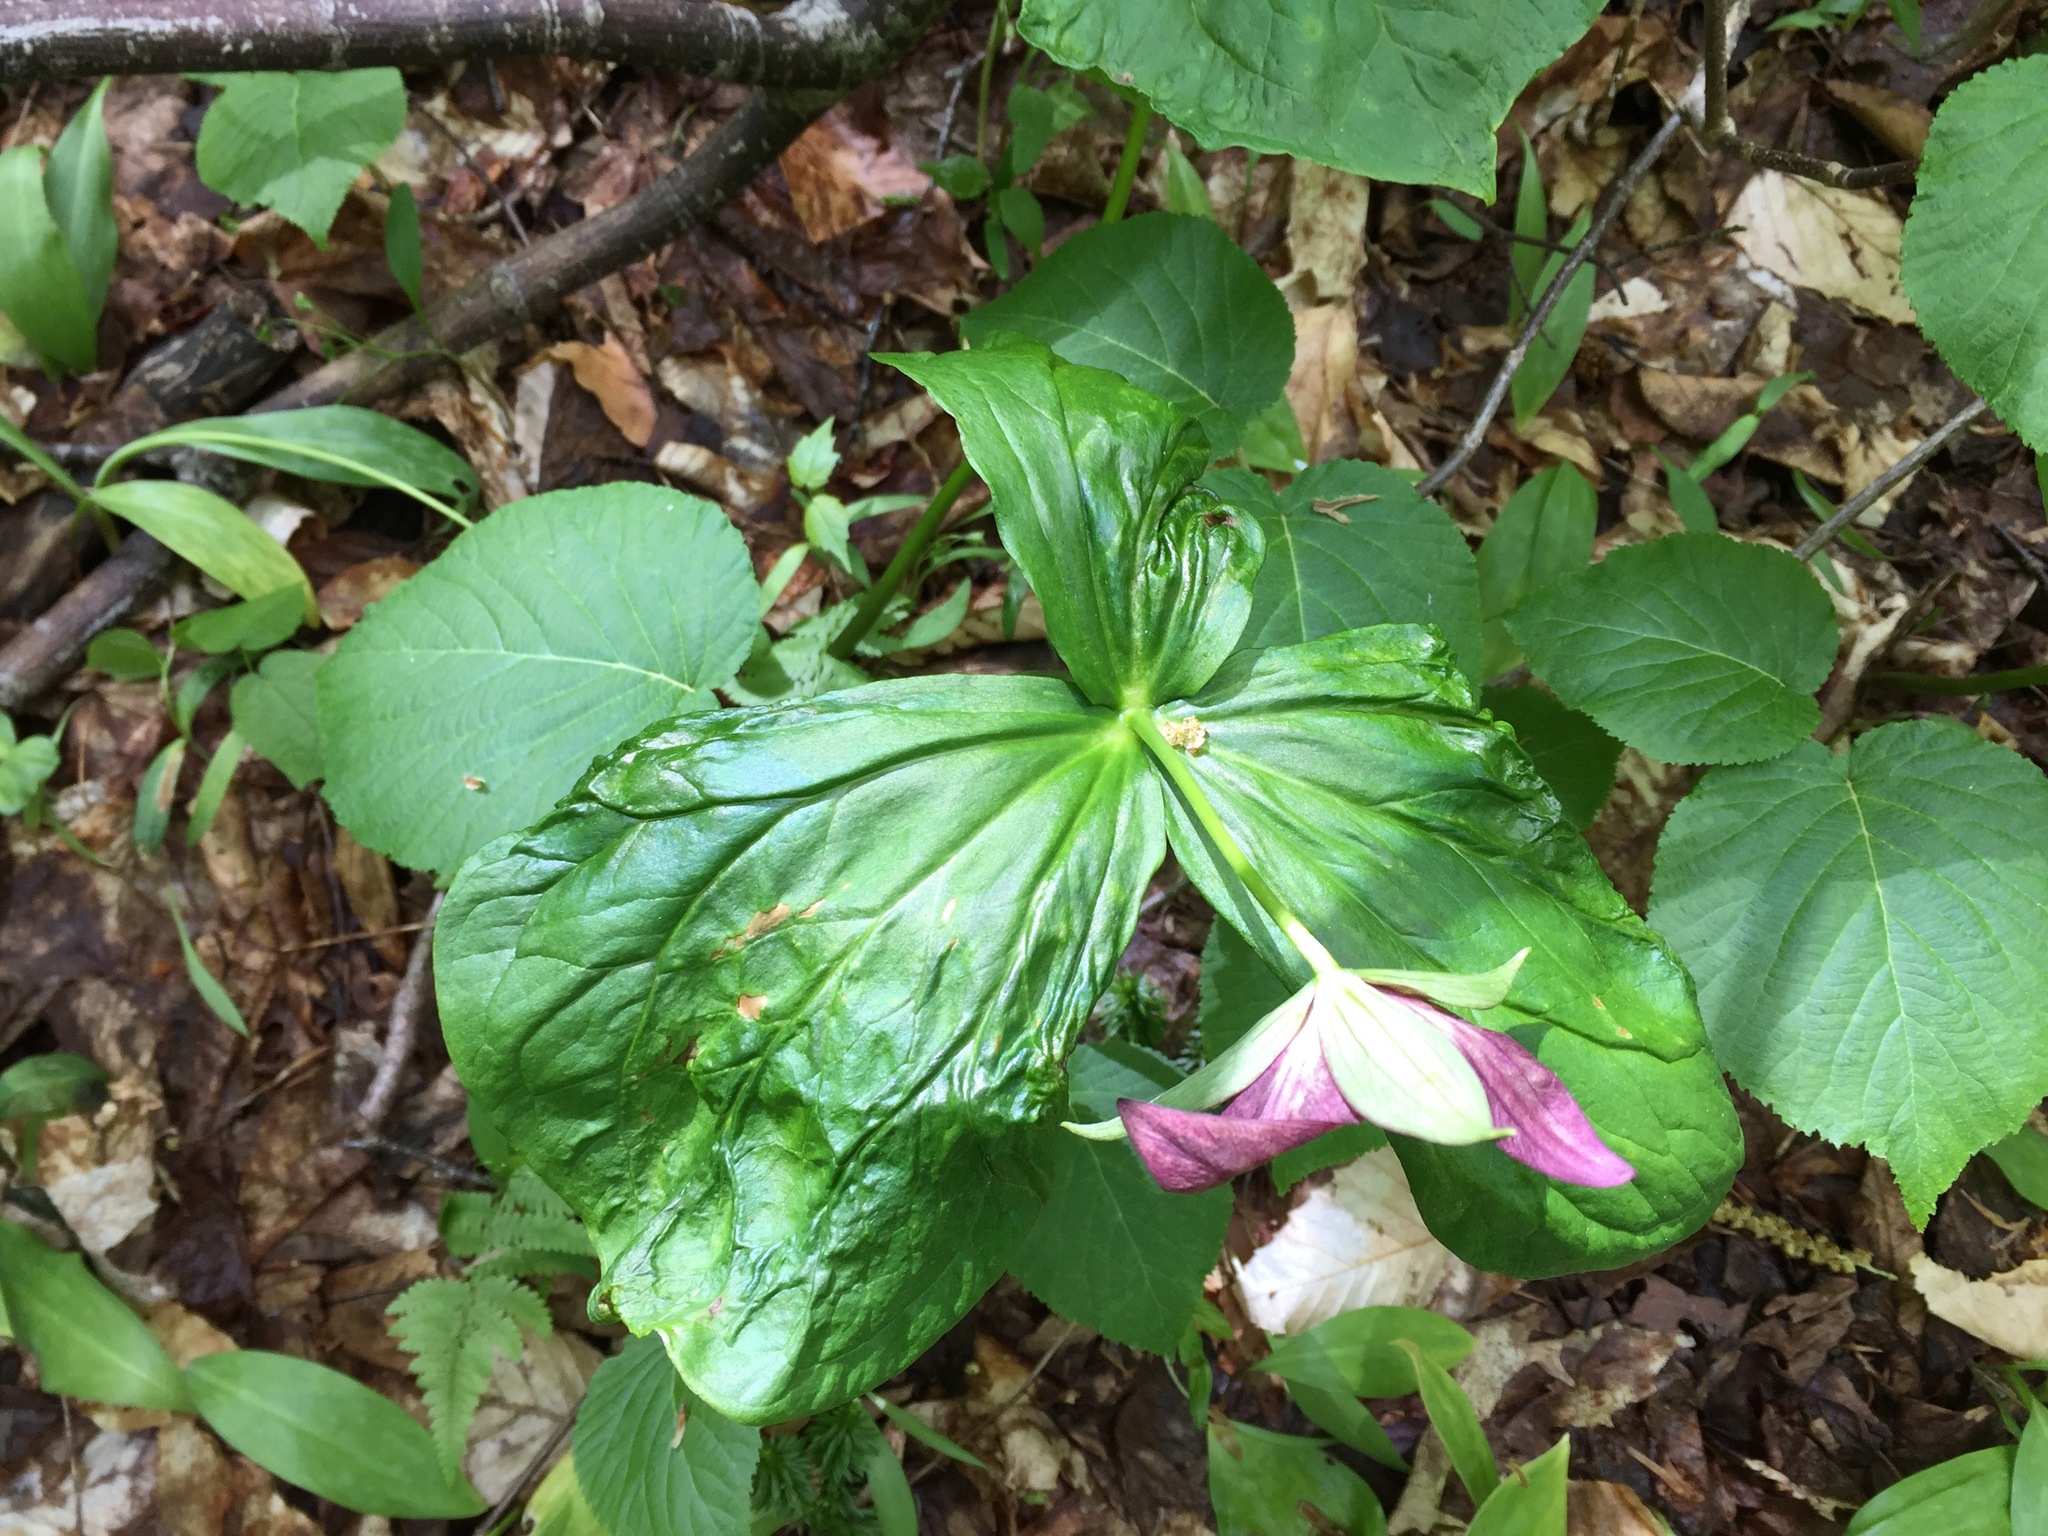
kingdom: Plantae
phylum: Tracheophyta
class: Liliopsida
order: Liliales
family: Melanthiaceae
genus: Trillium
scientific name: Trillium erectum
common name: Purple trillium
